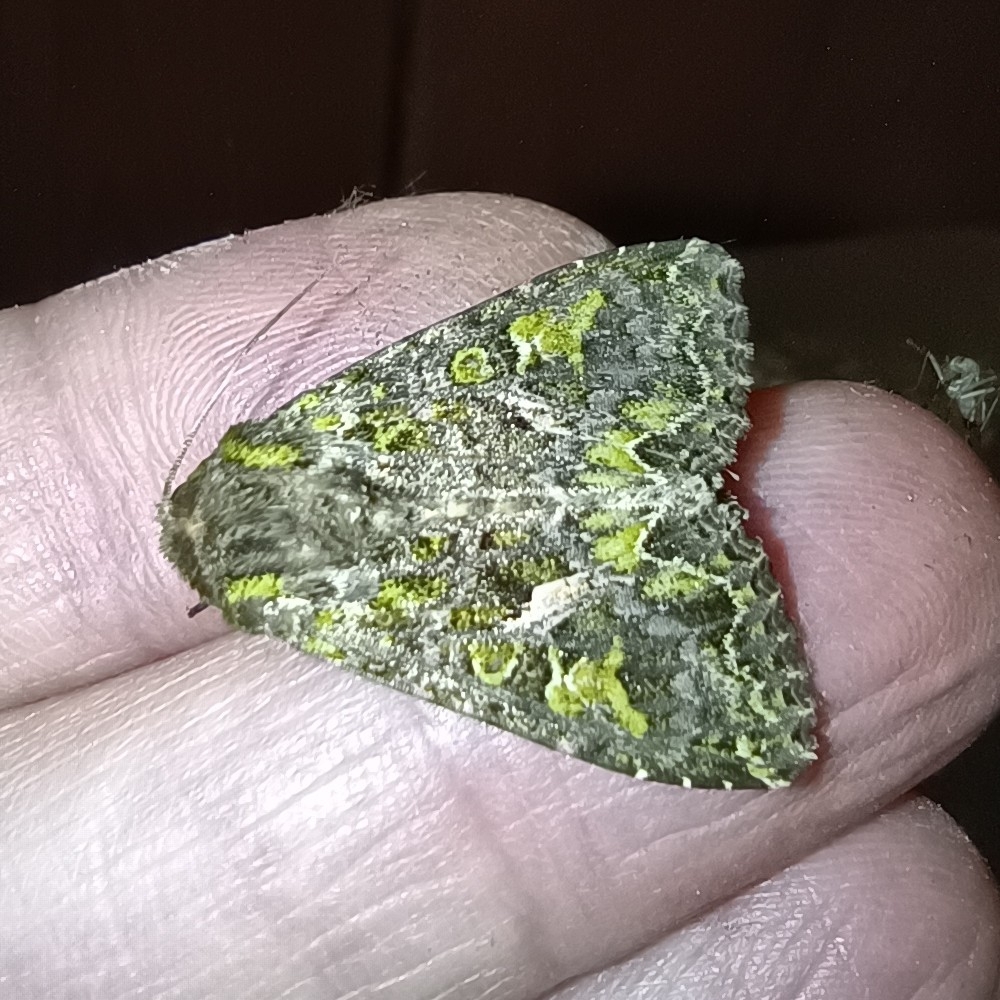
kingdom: Animalia
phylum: Arthropoda
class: Insecta
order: Lepidoptera
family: Noctuidae
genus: Trachea
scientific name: Trachea atriplicis
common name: Orache moth
